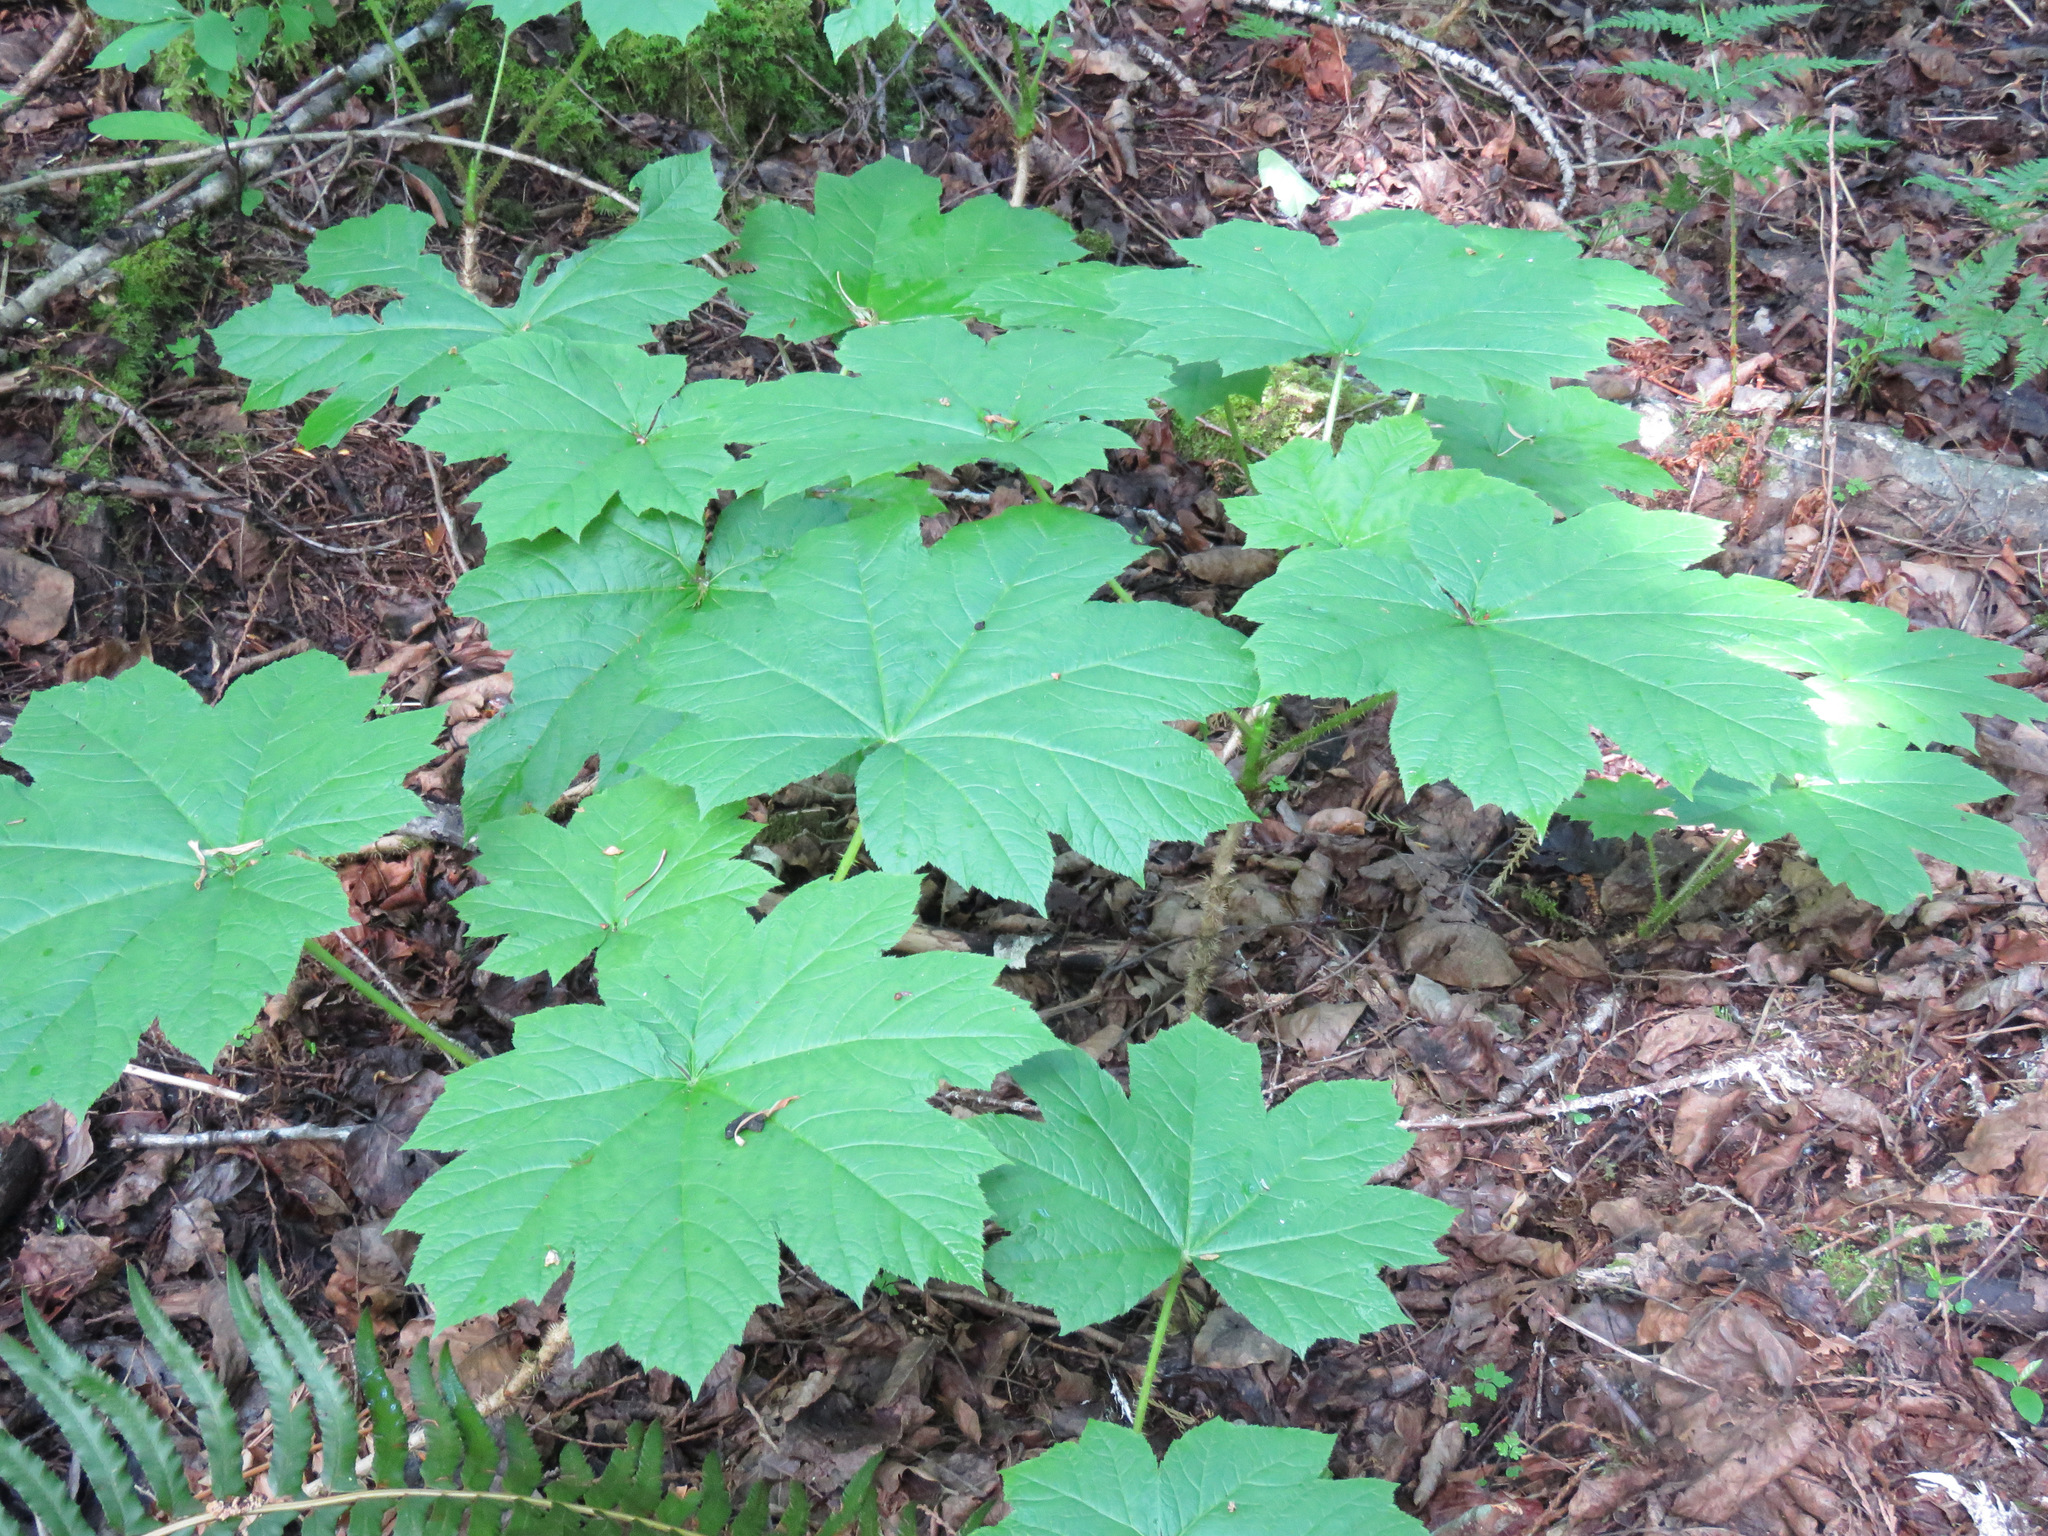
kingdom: Plantae
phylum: Tracheophyta
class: Magnoliopsida
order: Apiales
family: Araliaceae
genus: Oplopanax
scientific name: Oplopanax horridus
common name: Devil's walking-stick
